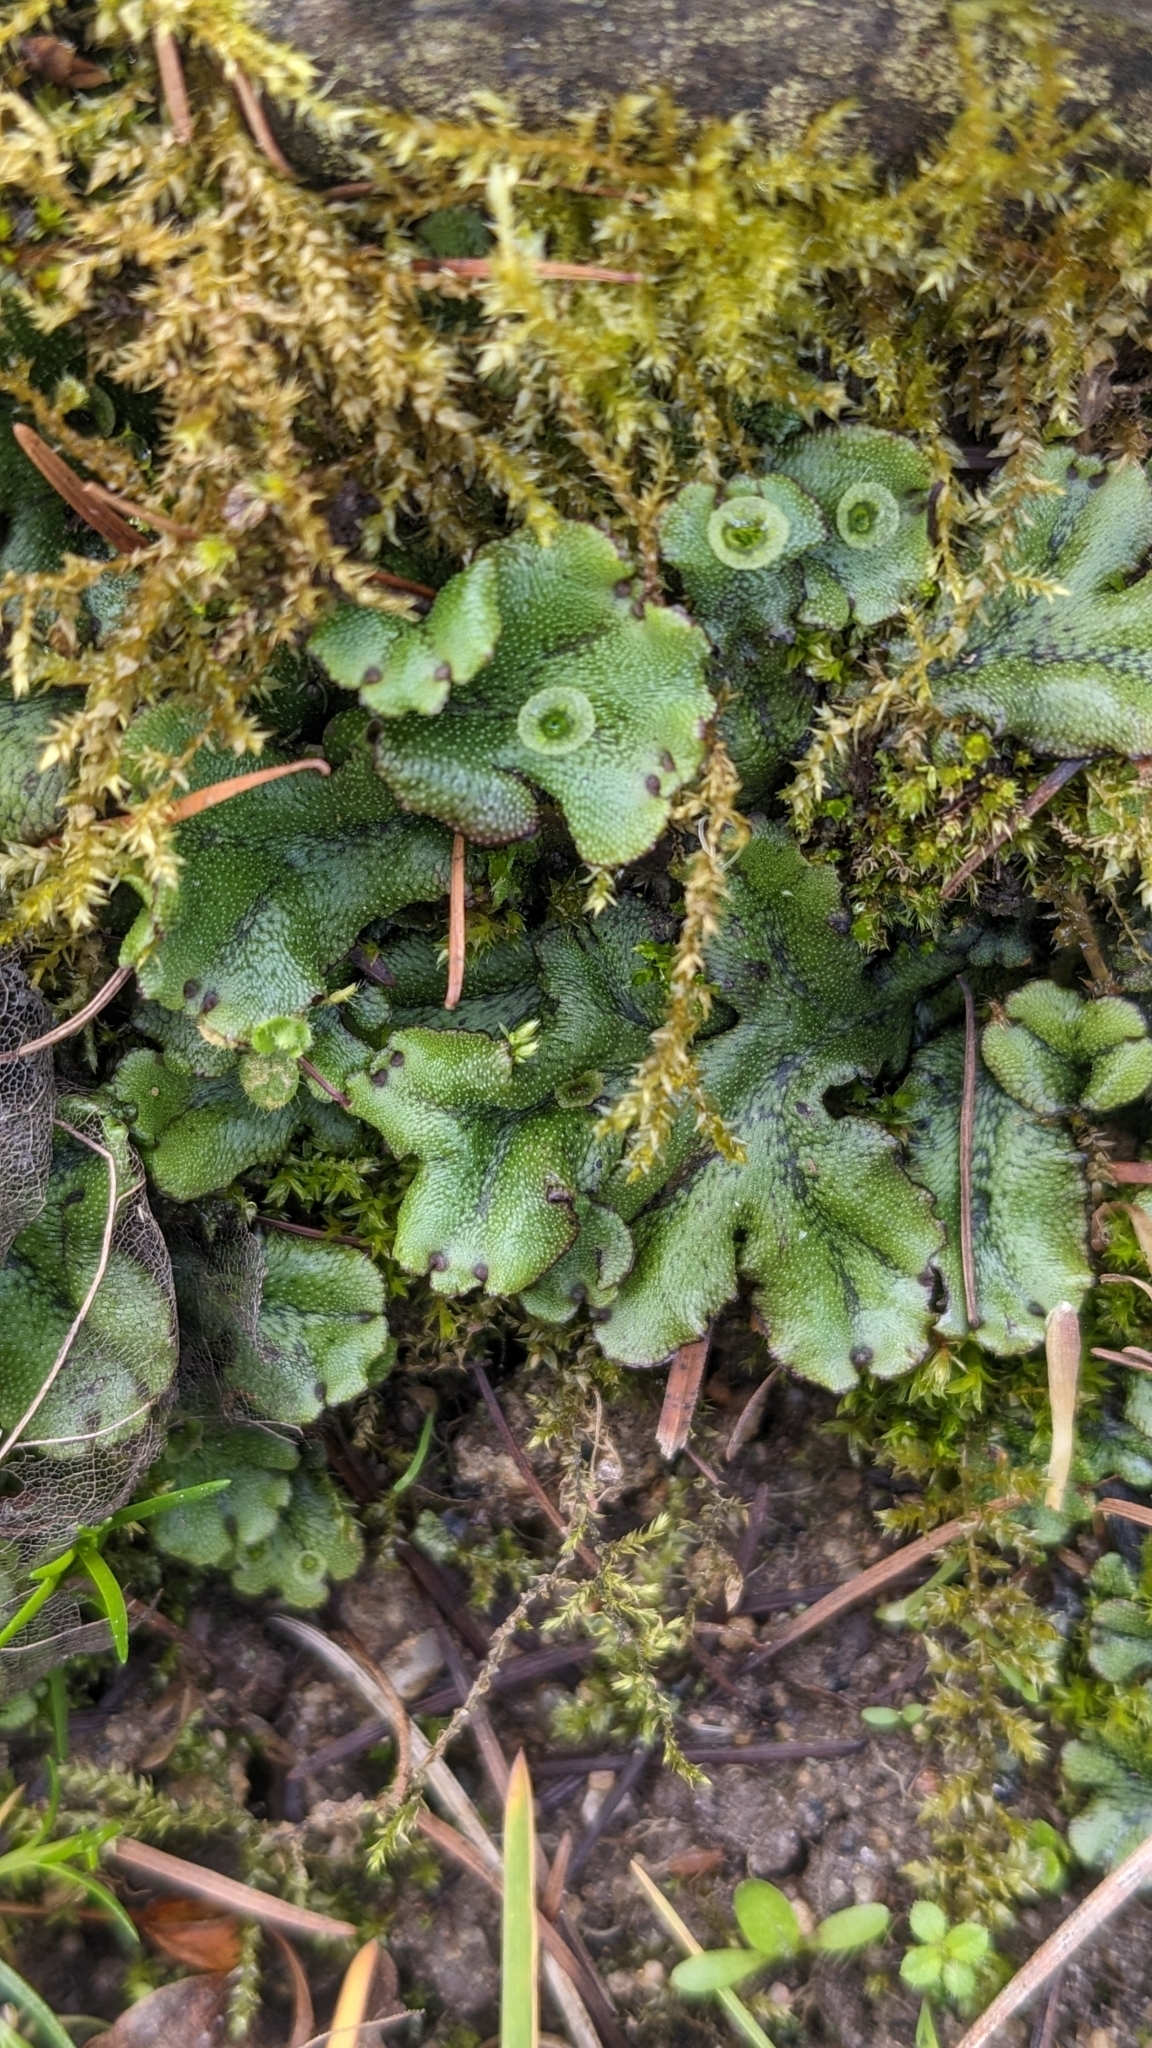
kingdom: Plantae
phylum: Marchantiophyta
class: Marchantiopsida
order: Marchantiales
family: Marchantiaceae
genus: Marchantia
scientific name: Marchantia polymorpha
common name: Common liverwort
